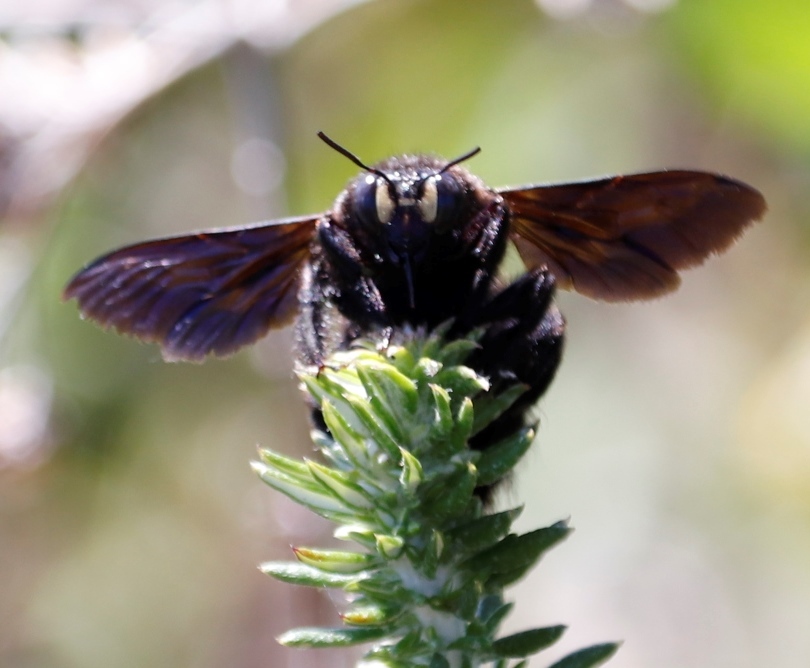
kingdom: Animalia
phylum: Arthropoda
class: Insecta
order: Hymenoptera
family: Apidae
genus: Xylocopa
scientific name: Xylocopa capitata
